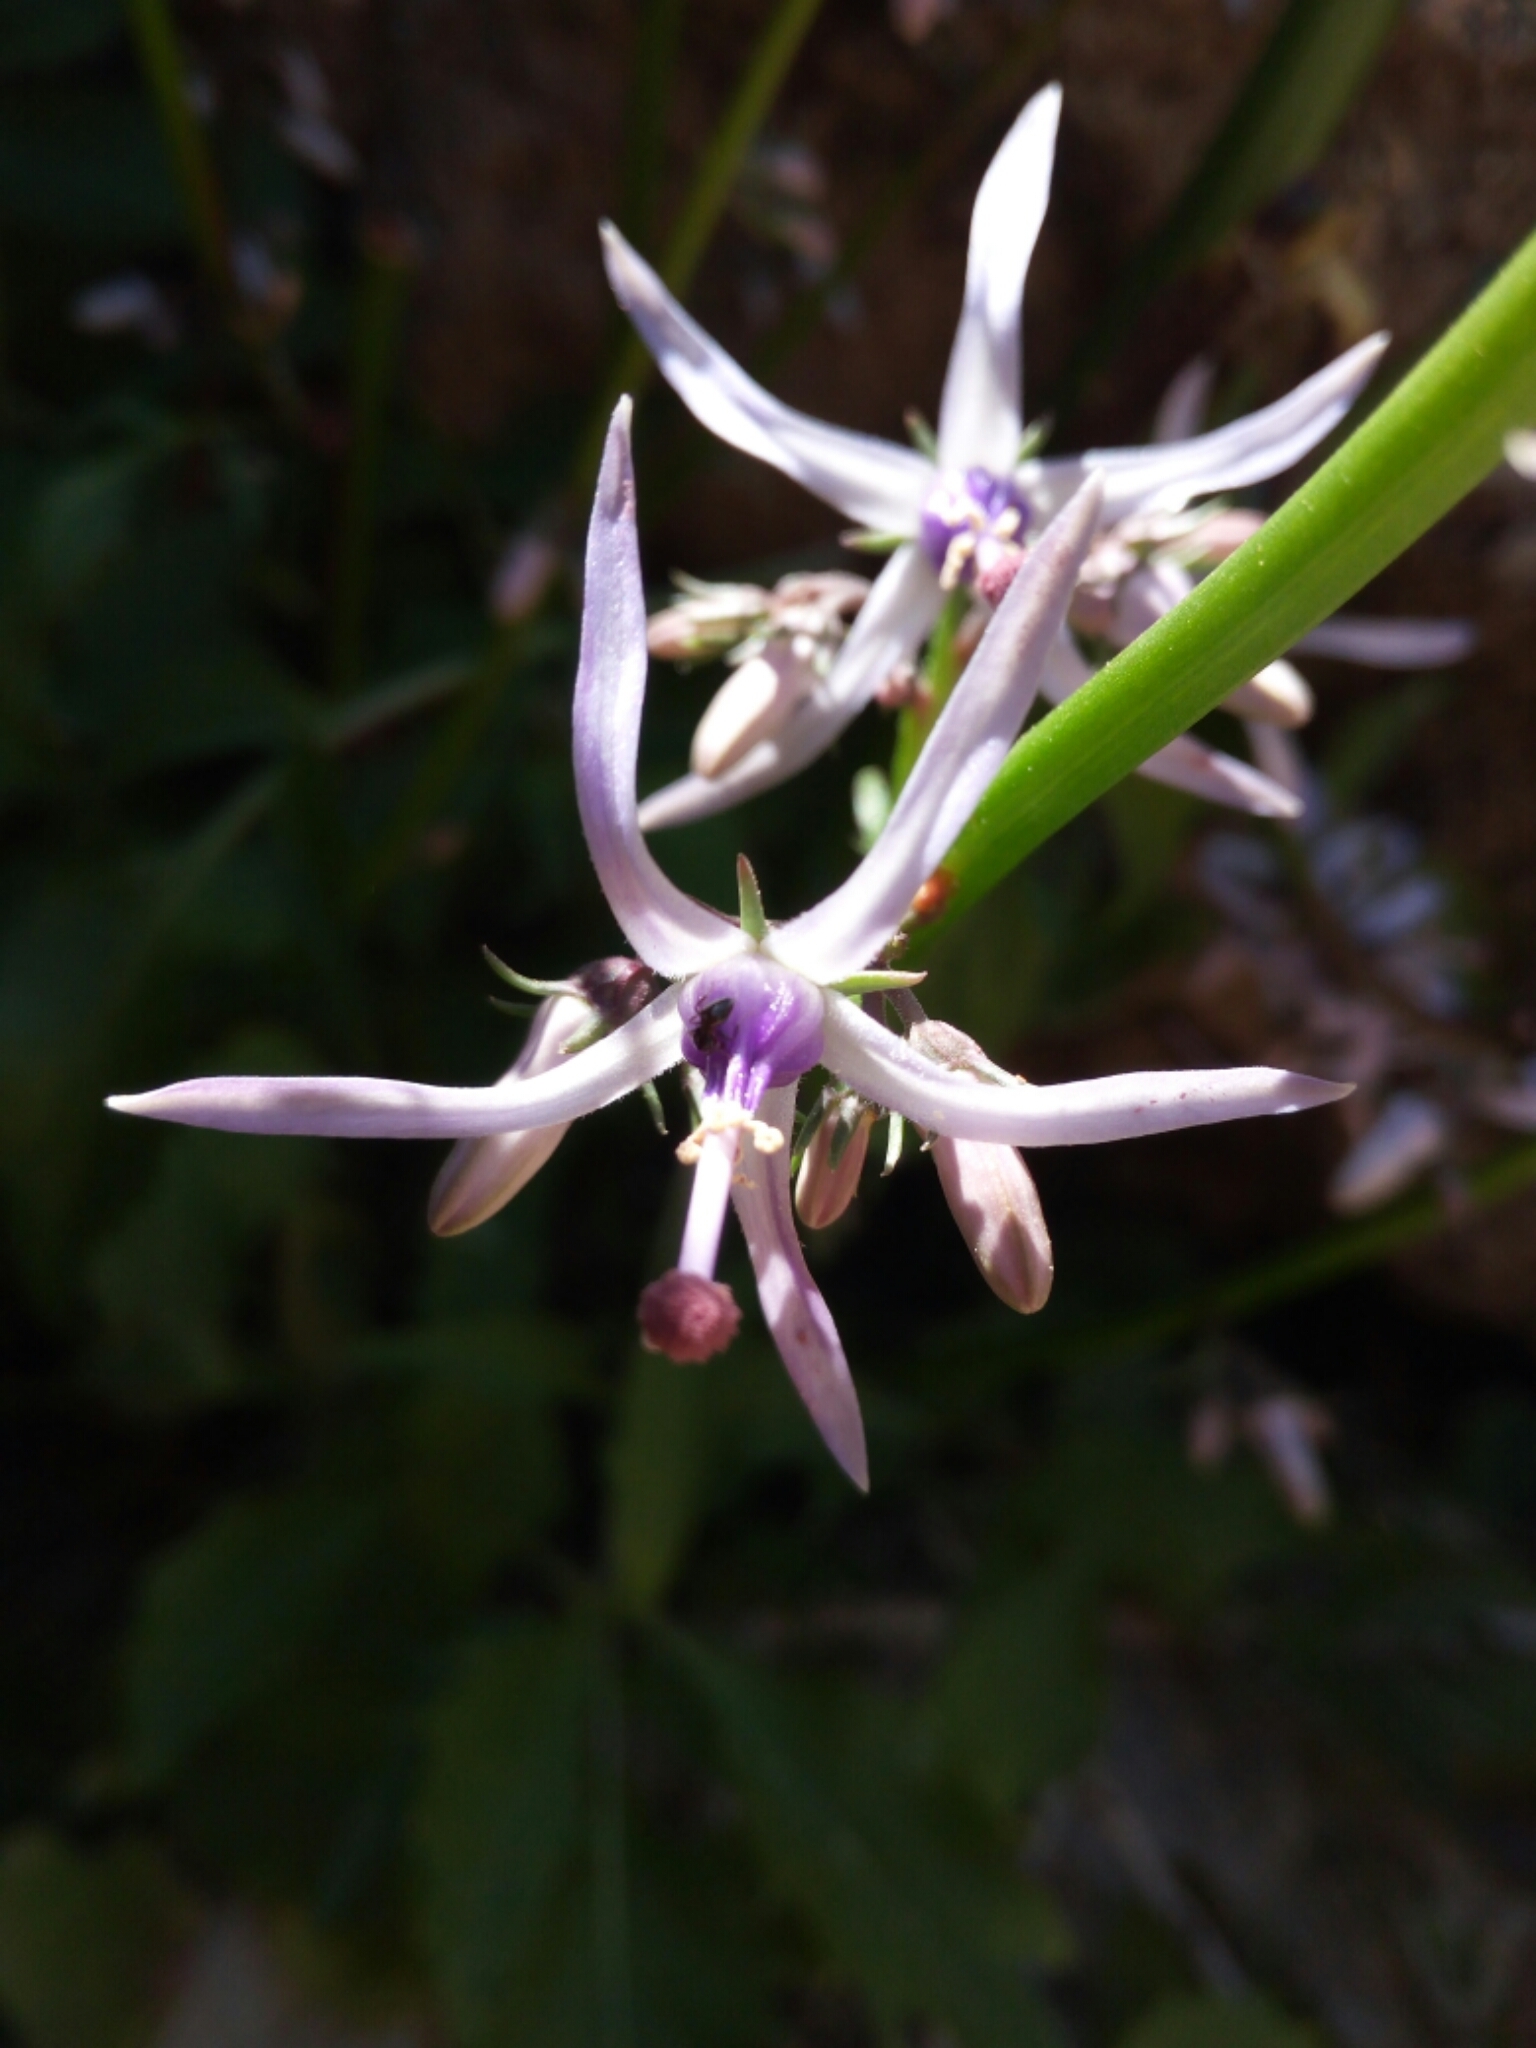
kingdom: Plantae
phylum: Tracheophyta
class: Magnoliopsida
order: Asterales
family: Campanulaceae
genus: Petromarula
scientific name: Petromarula pinnata
